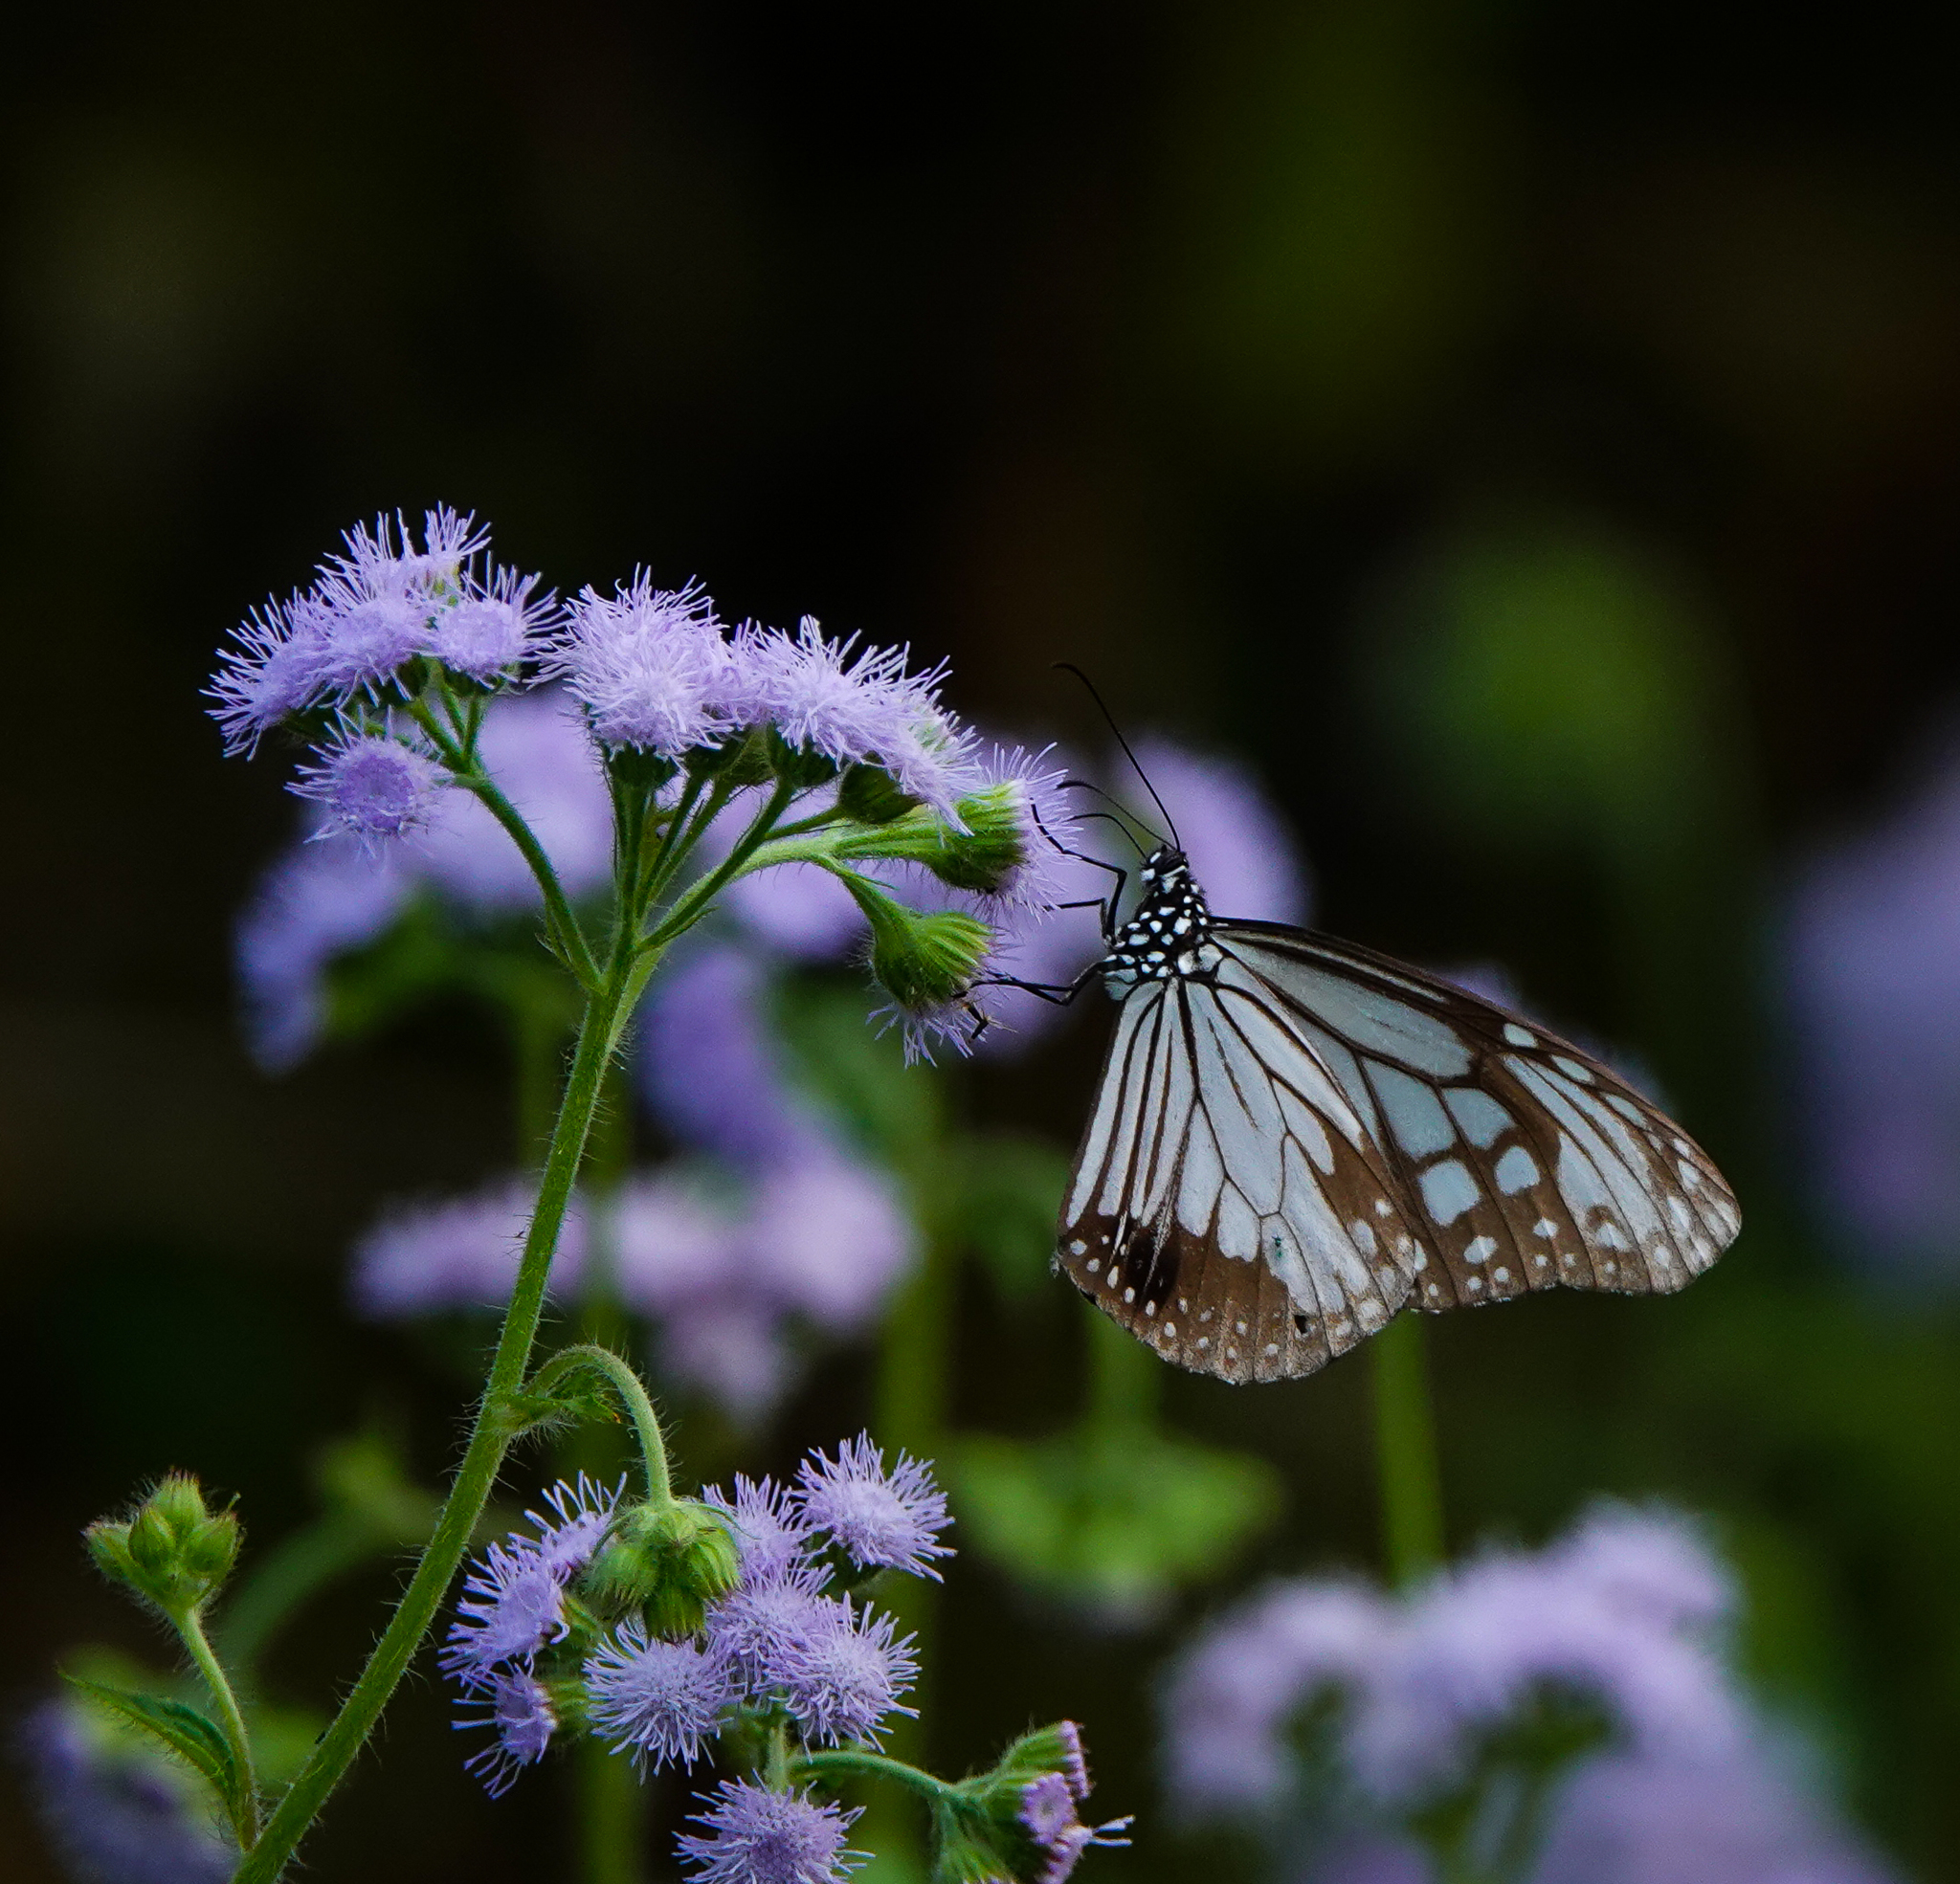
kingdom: Animalia
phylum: Arthropoda
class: Insecta
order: Lepidoptera
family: Nymphalidae
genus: Parantica
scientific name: Parantica aglea
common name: Glassy tiger
